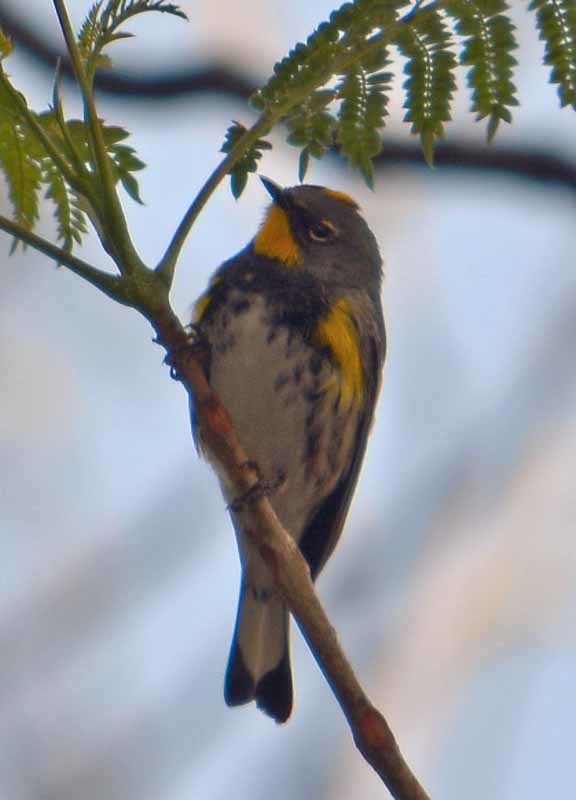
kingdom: Animalia
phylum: Chordata
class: Aves
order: Passeriformes
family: Parulidae
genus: Setophaga
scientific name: Setophaga auduboni
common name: Audubon's warbler
